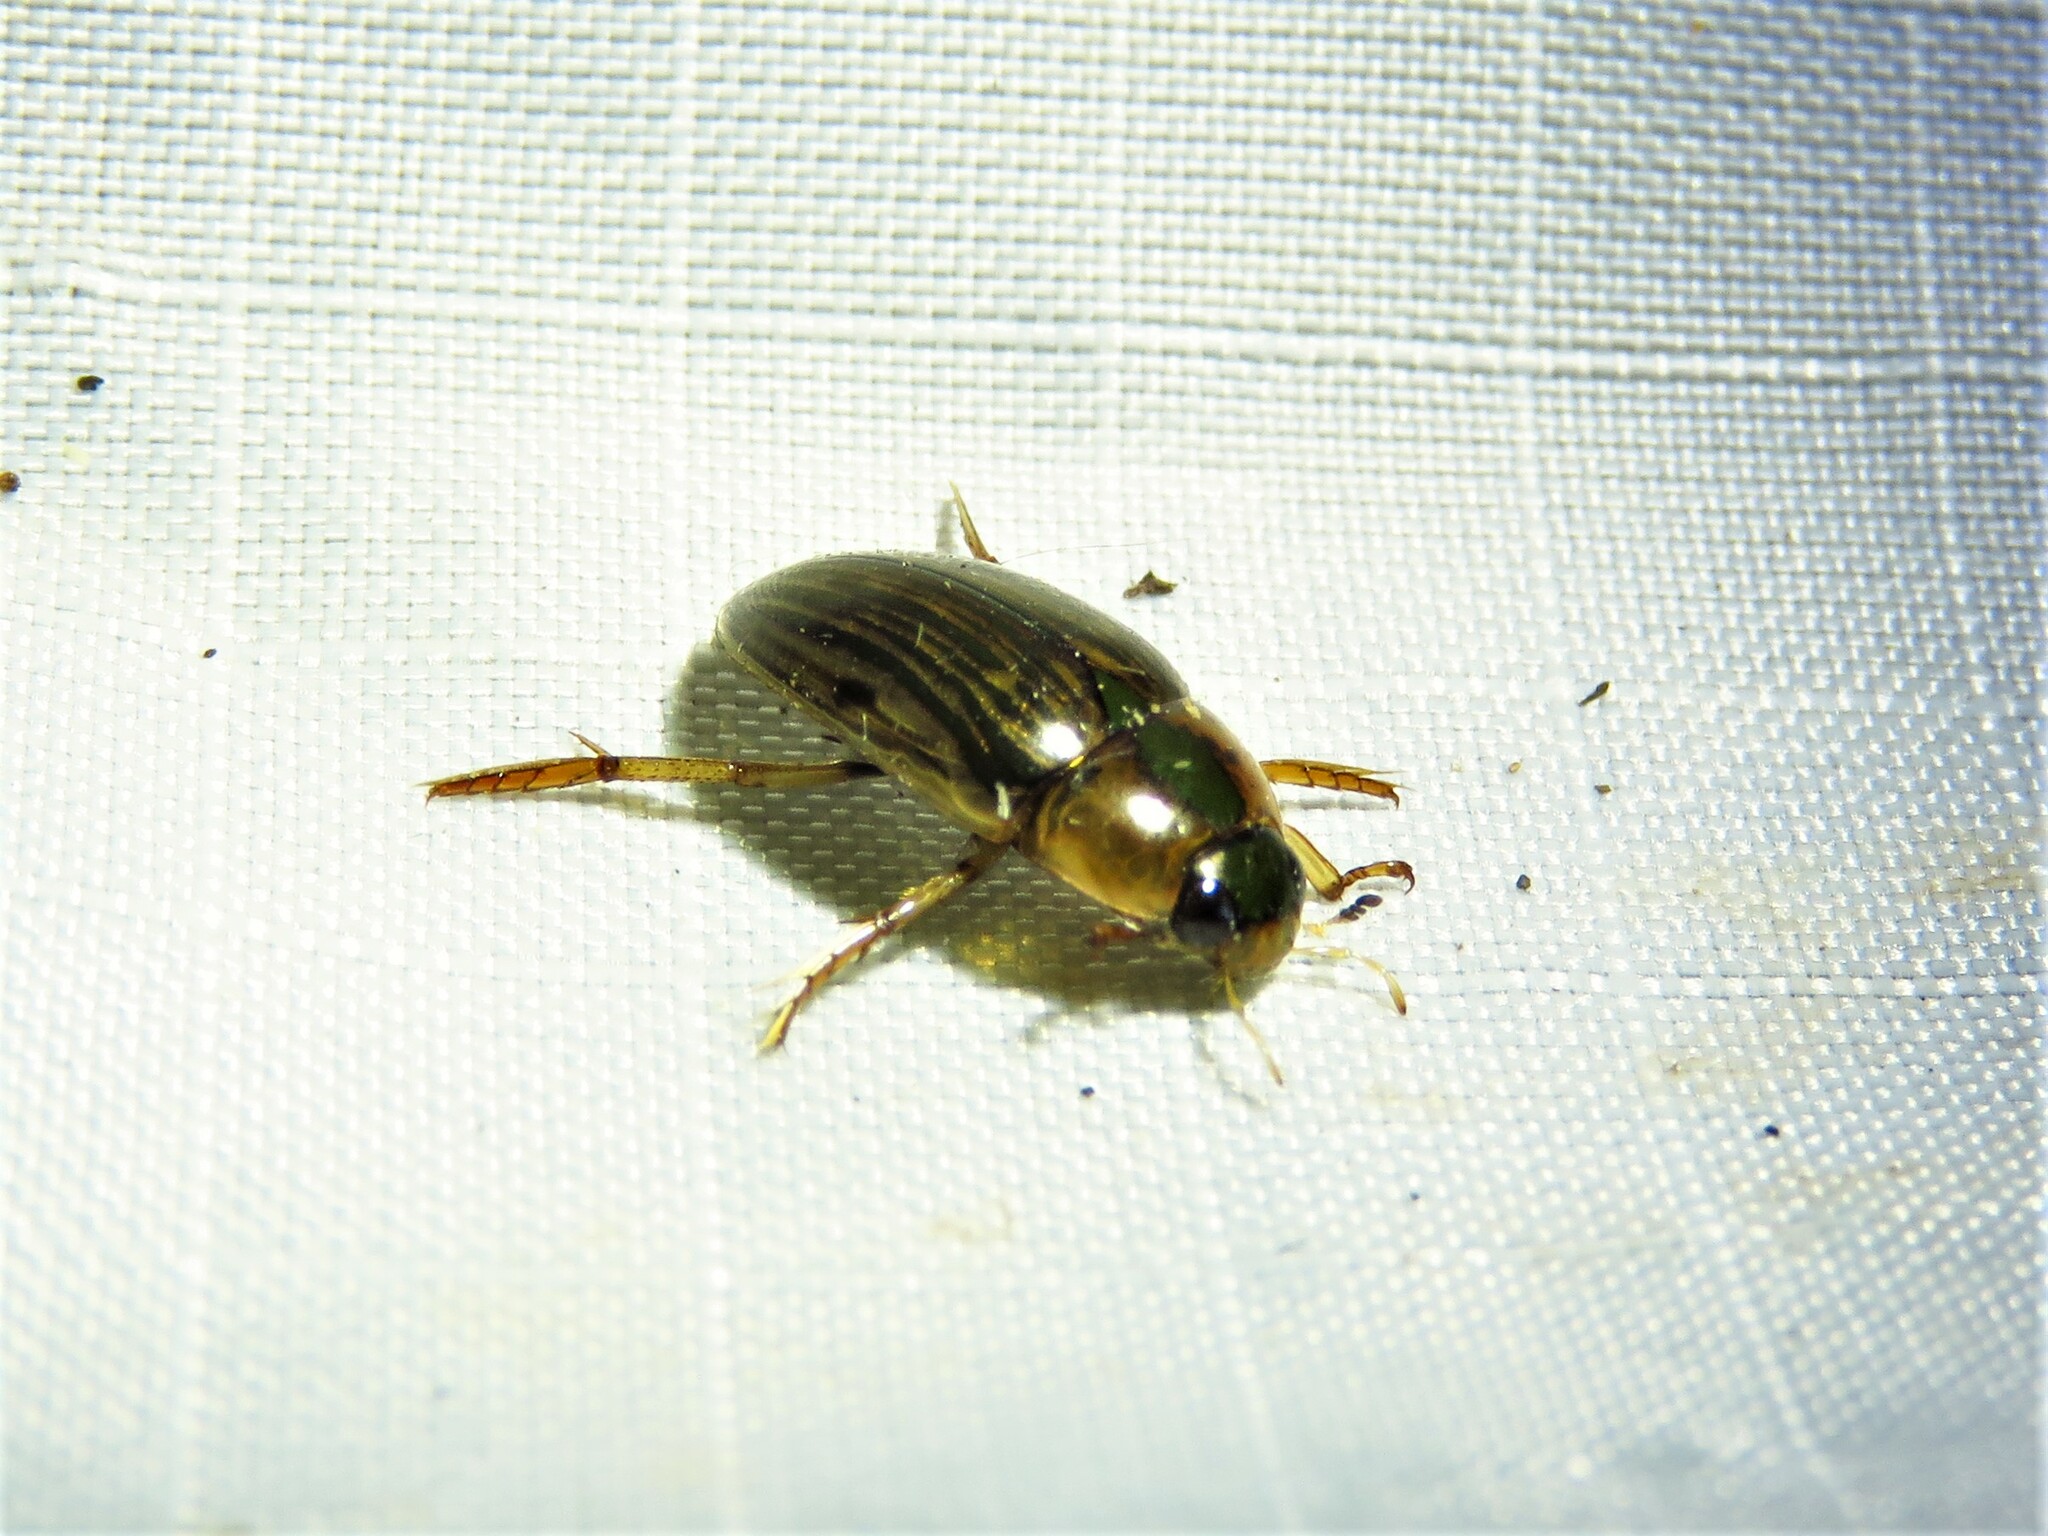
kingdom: Animalia
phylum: Arthropoda
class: Insecta
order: Coleoptera
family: Hydrophilidae
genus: Tropisternus
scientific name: Tropisternus collaris
